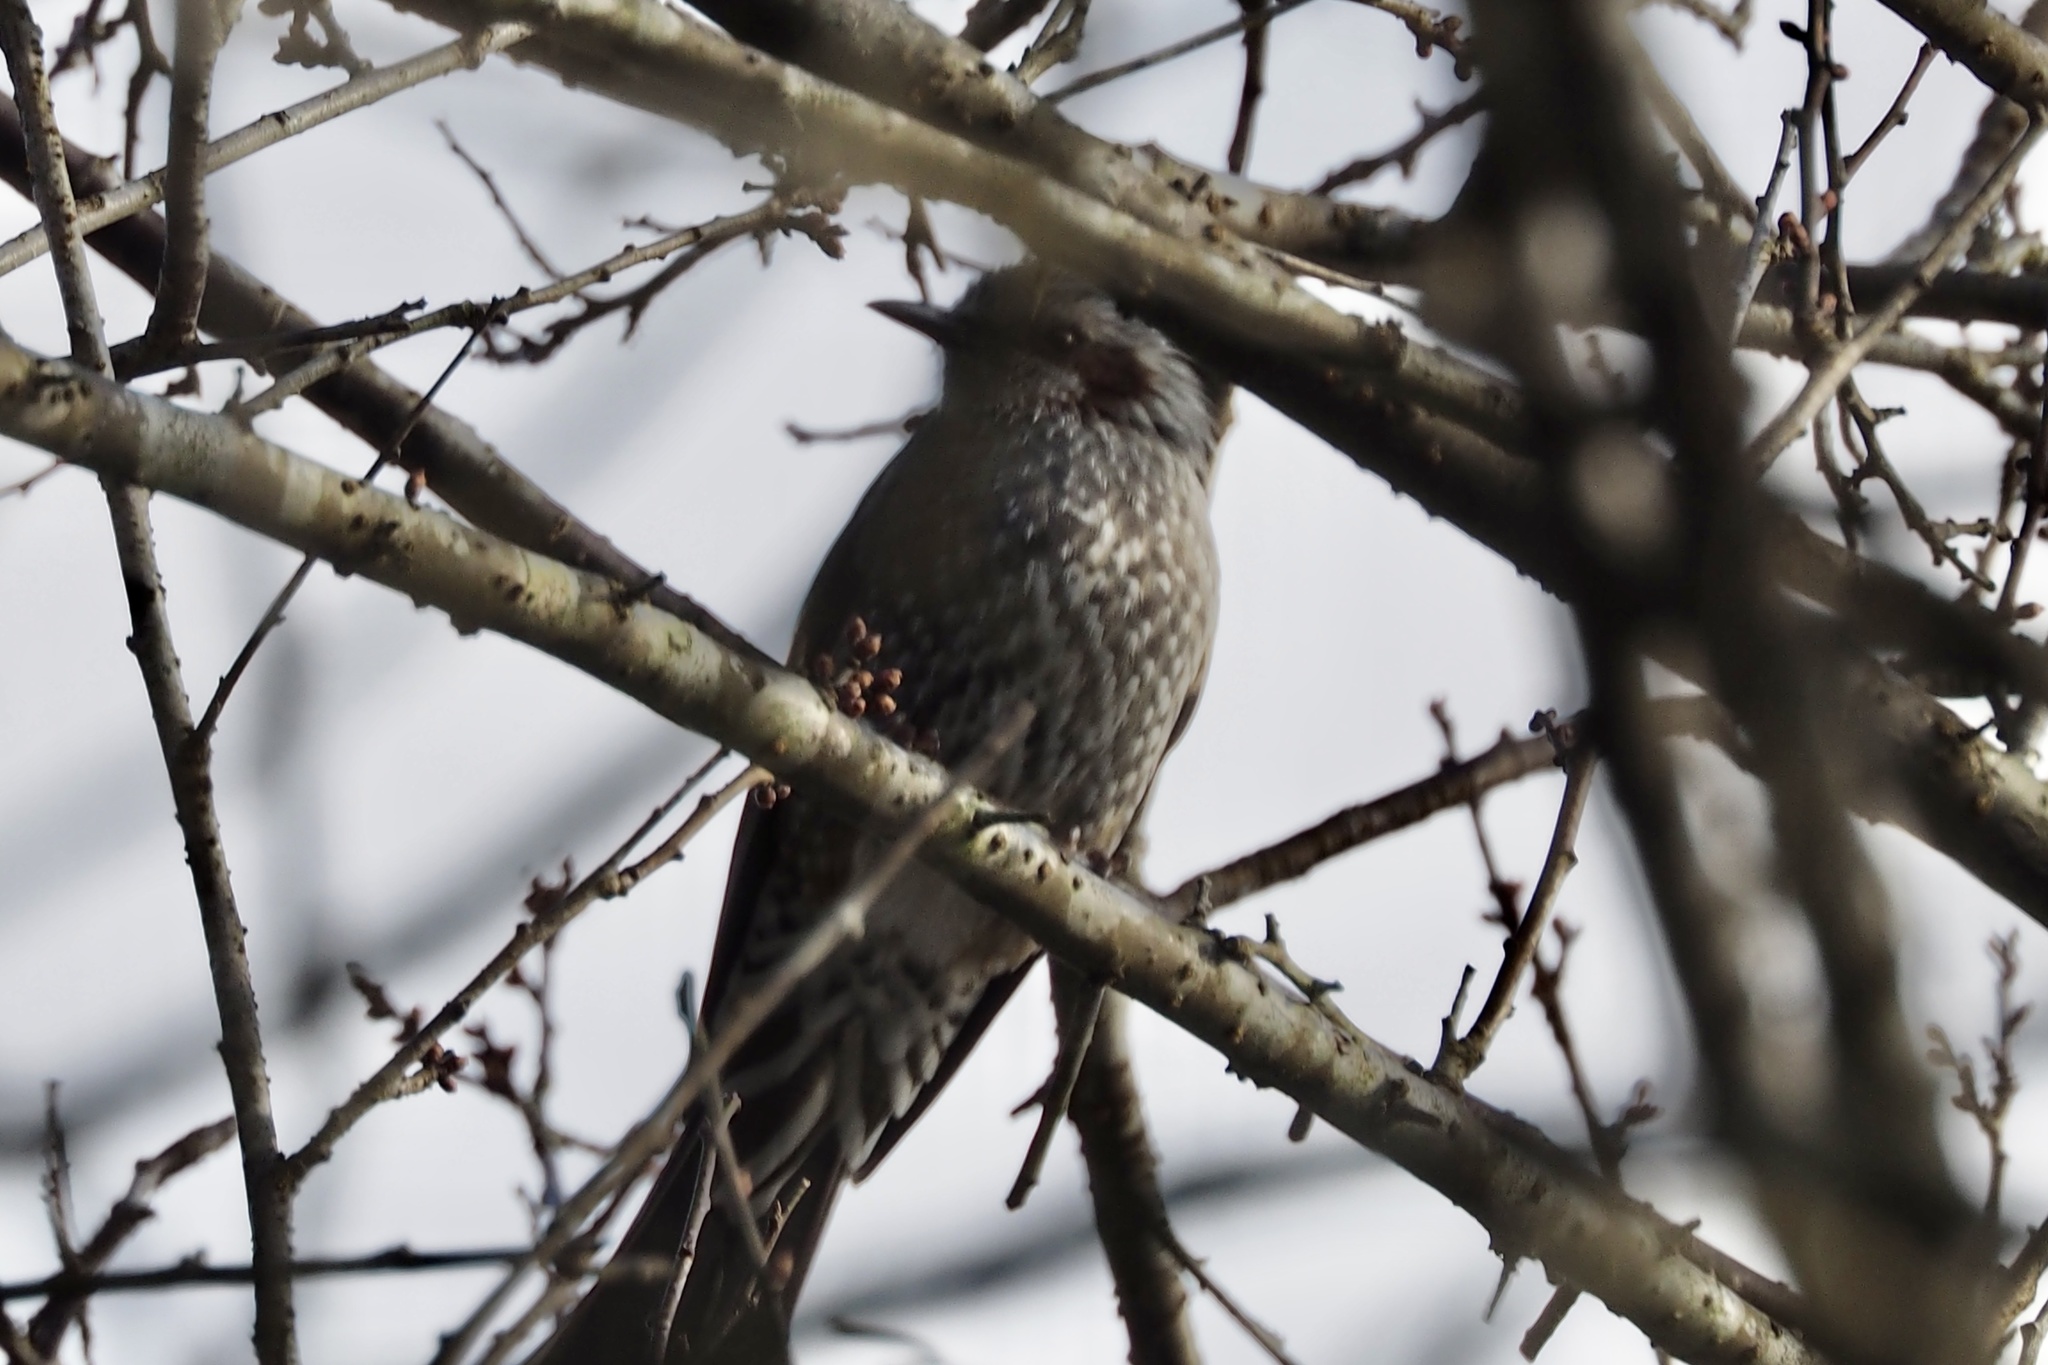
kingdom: Animalia
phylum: Chordata
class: Aves
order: Passeriformes
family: Pycnonotidae
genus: Hypsipetes
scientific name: Hypsipetes amaurotis
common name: Brown-eared bulbul
